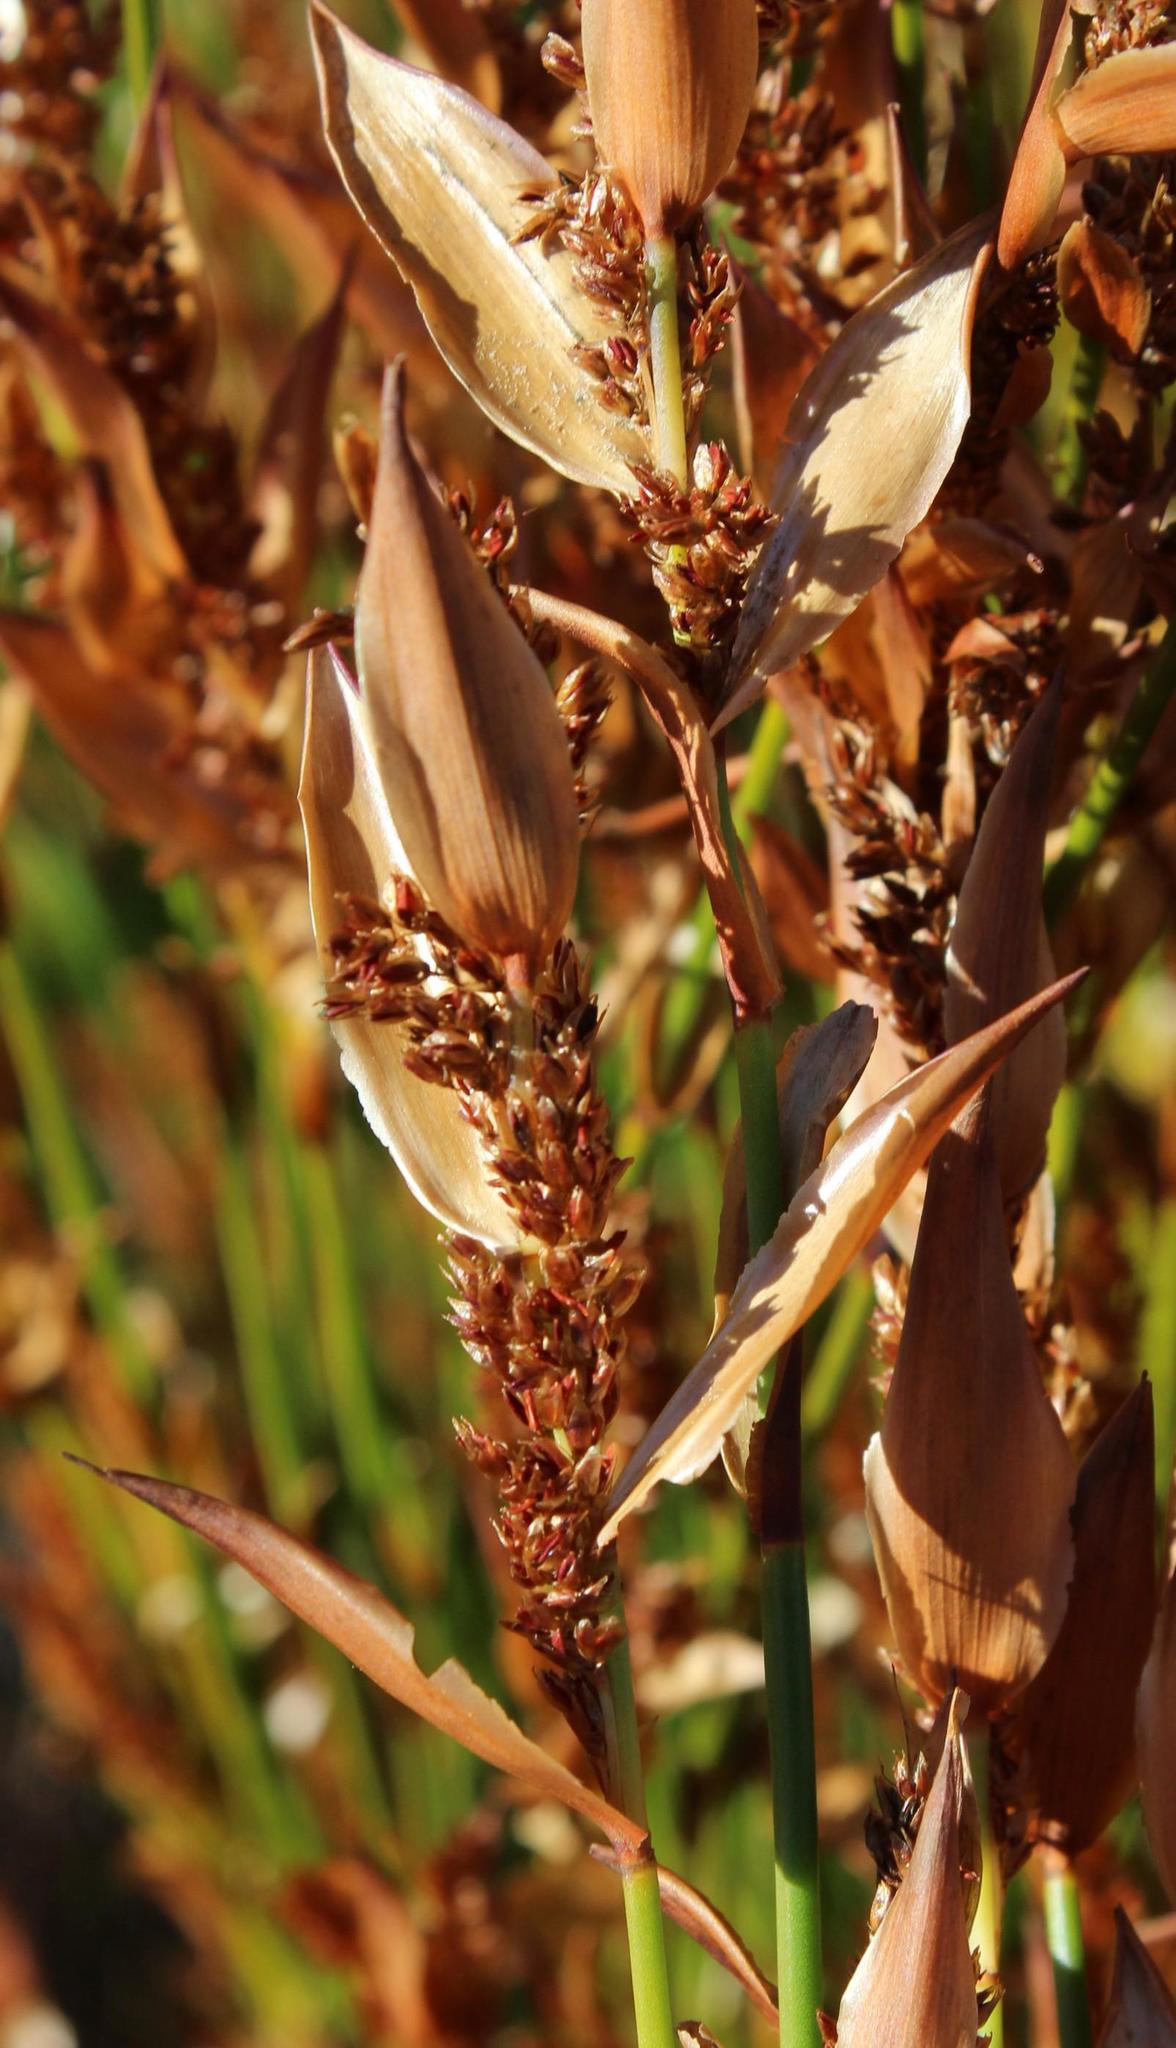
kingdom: Plantae
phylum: Tracheophyta
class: Liliopsida
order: Poales
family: Restionaceae
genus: Elegia
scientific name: Elegia muirii
